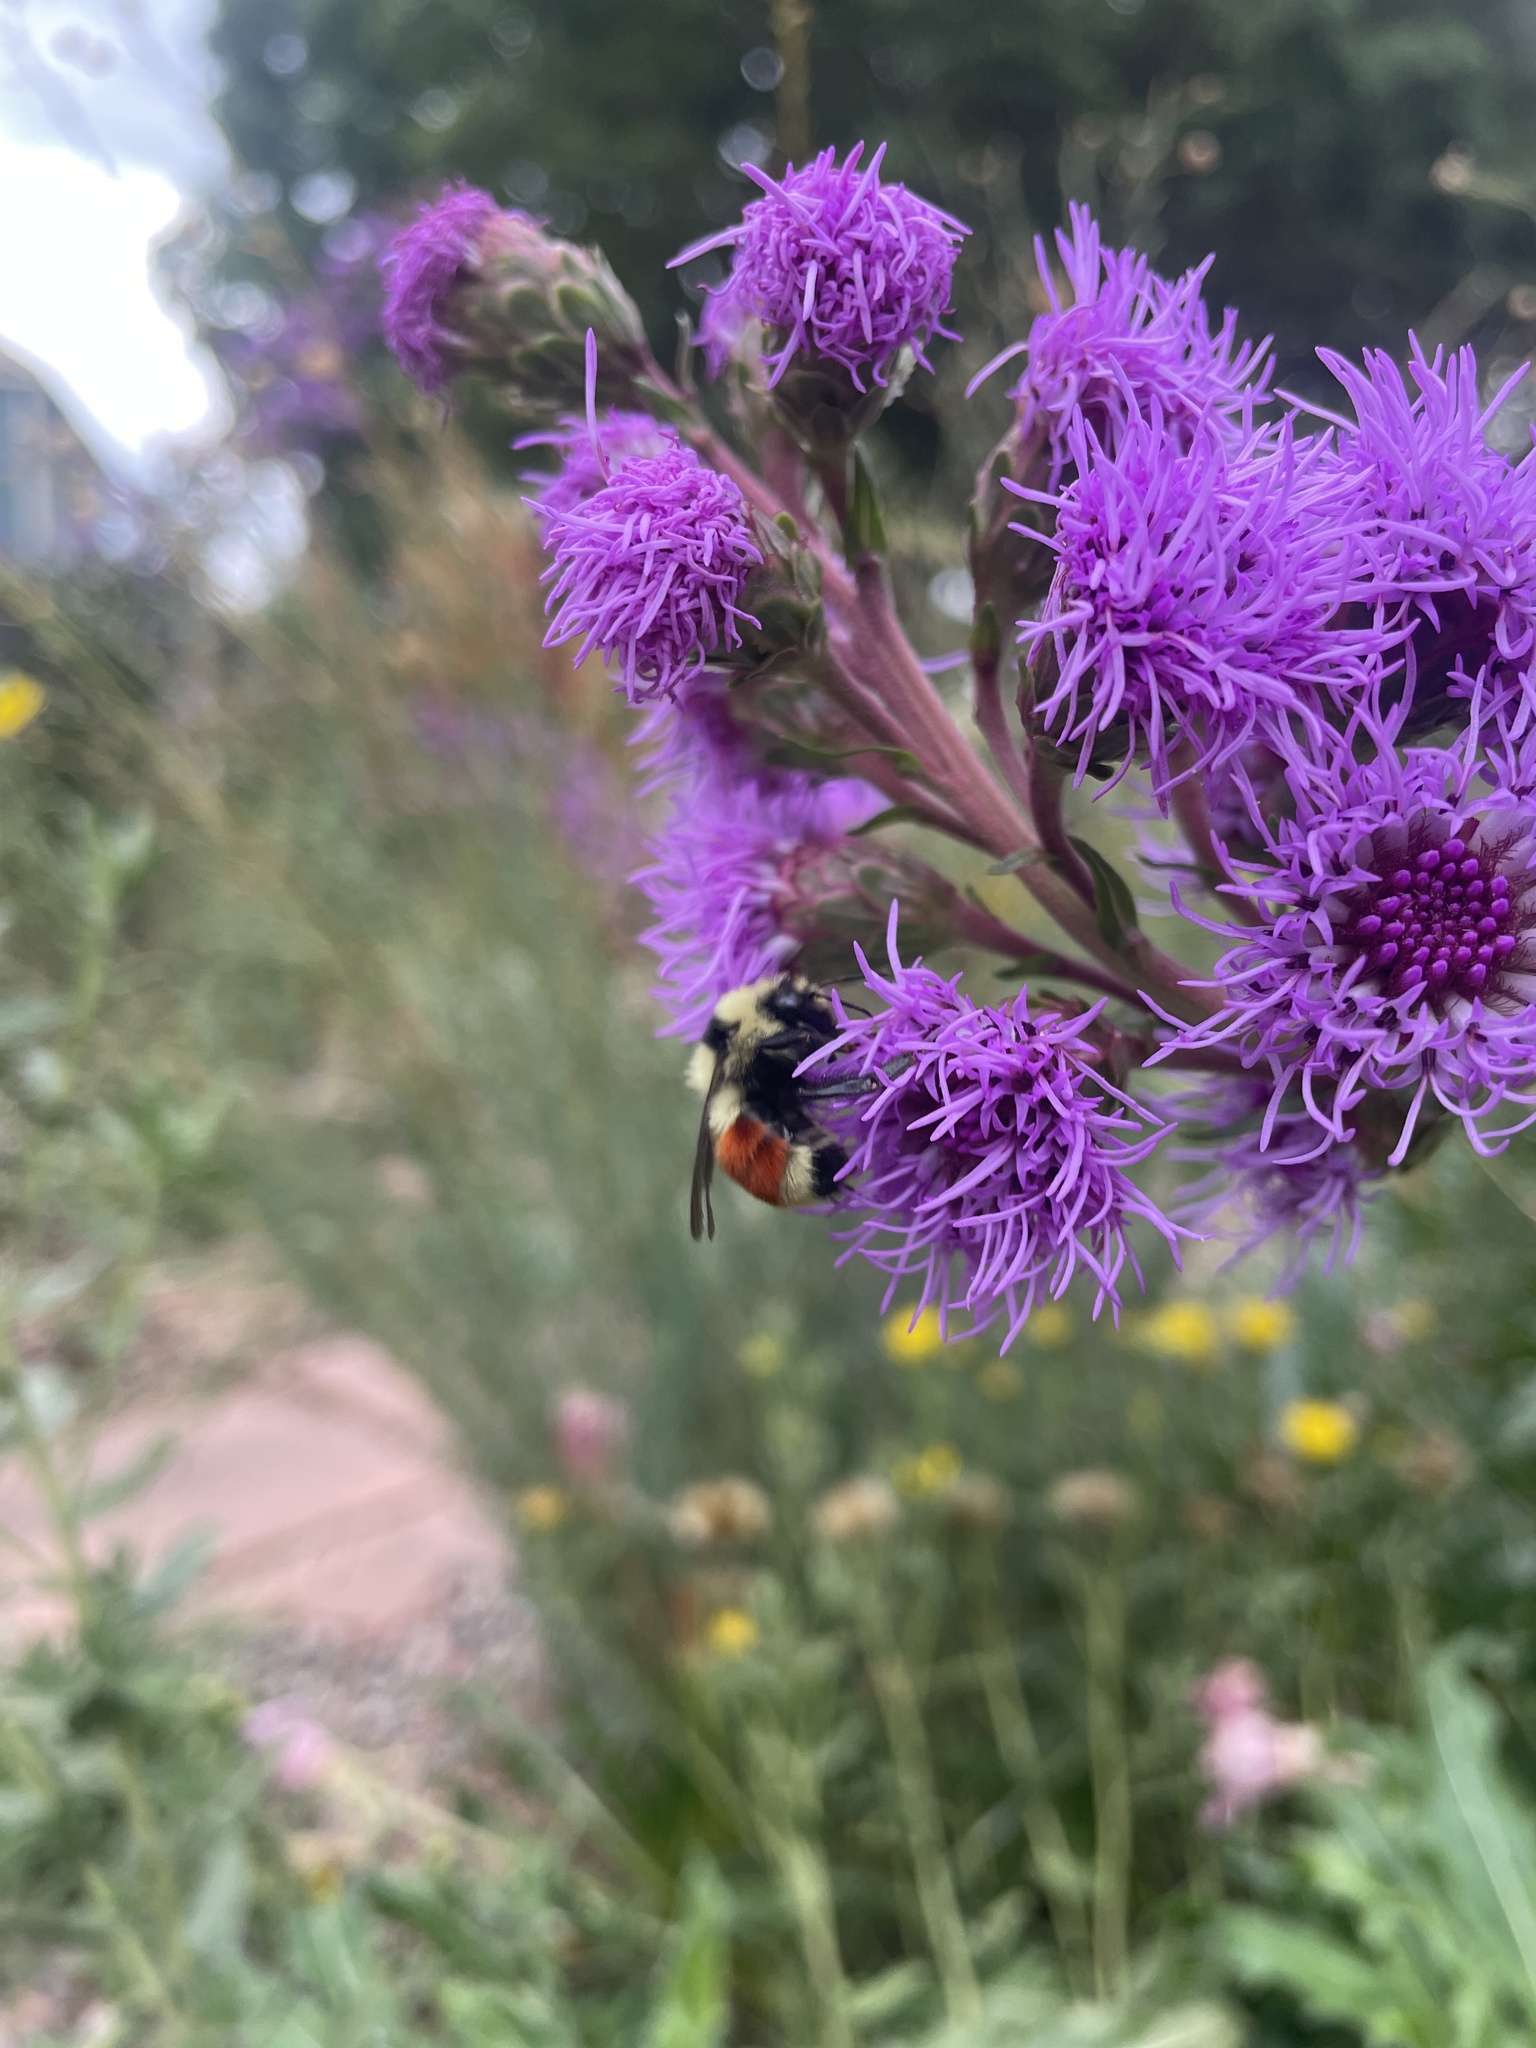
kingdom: Animalia
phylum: Arthropoda
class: Insecta
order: Hymenoptera
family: Apidae
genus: Bombus
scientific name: Bombus huntii
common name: Hunt bumble bee
